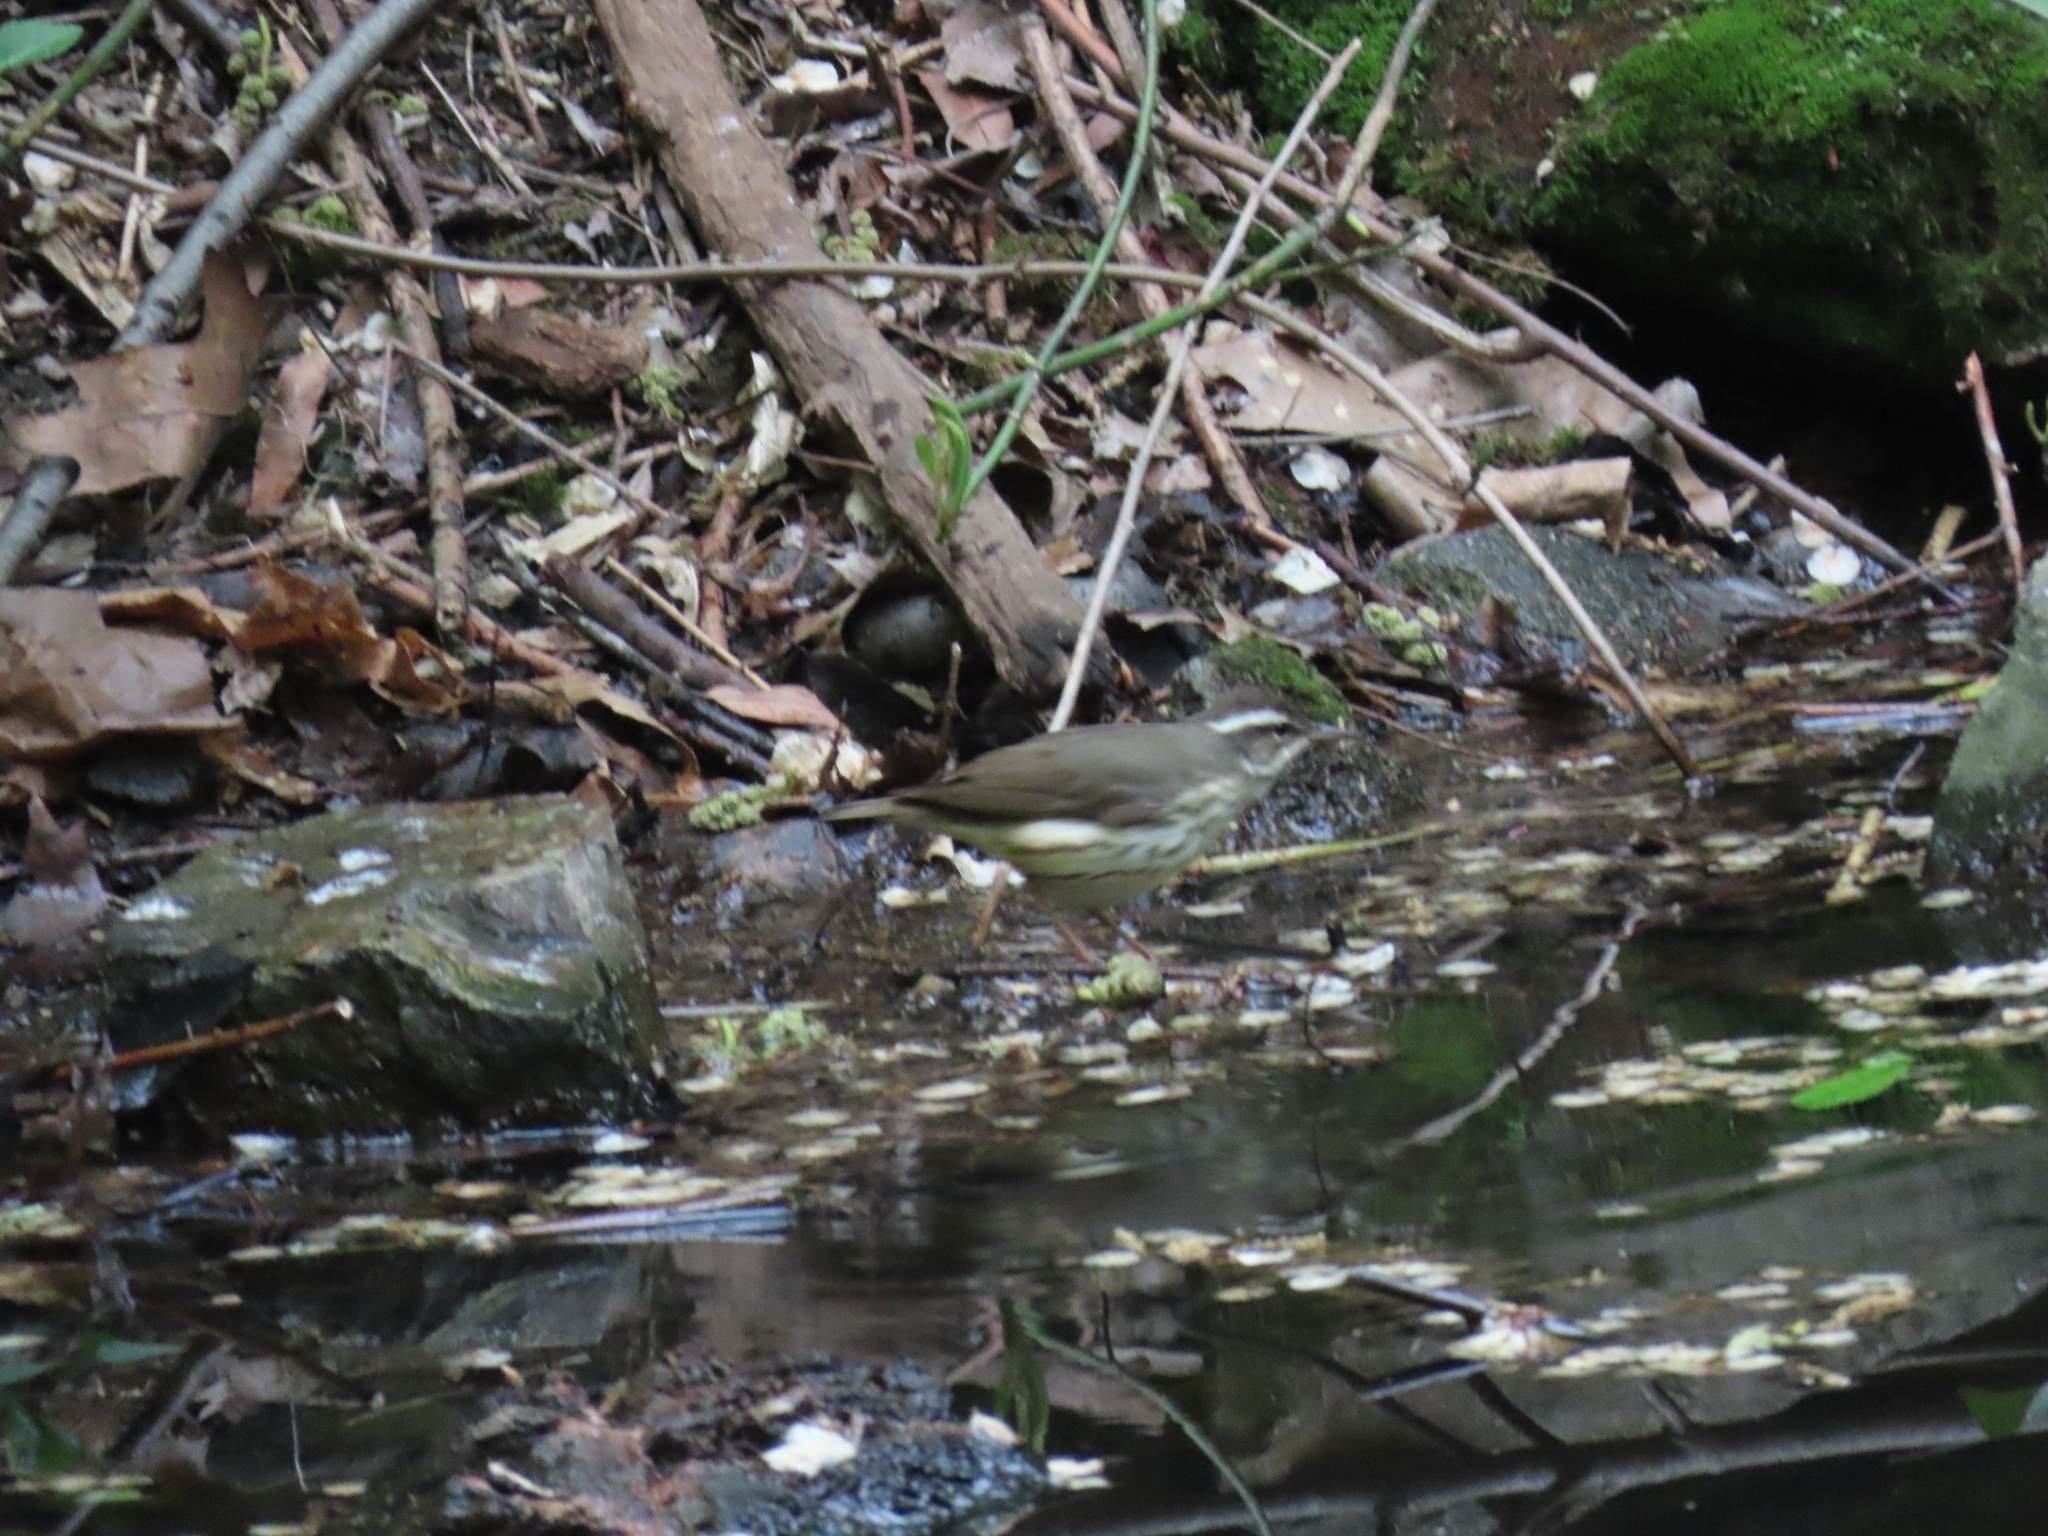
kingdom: Animalia
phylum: Chordata
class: Aves
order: Passeriformes
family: Parulidae
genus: Parkesia
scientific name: Parkesia motacilla
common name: Louisiana waterthrush
